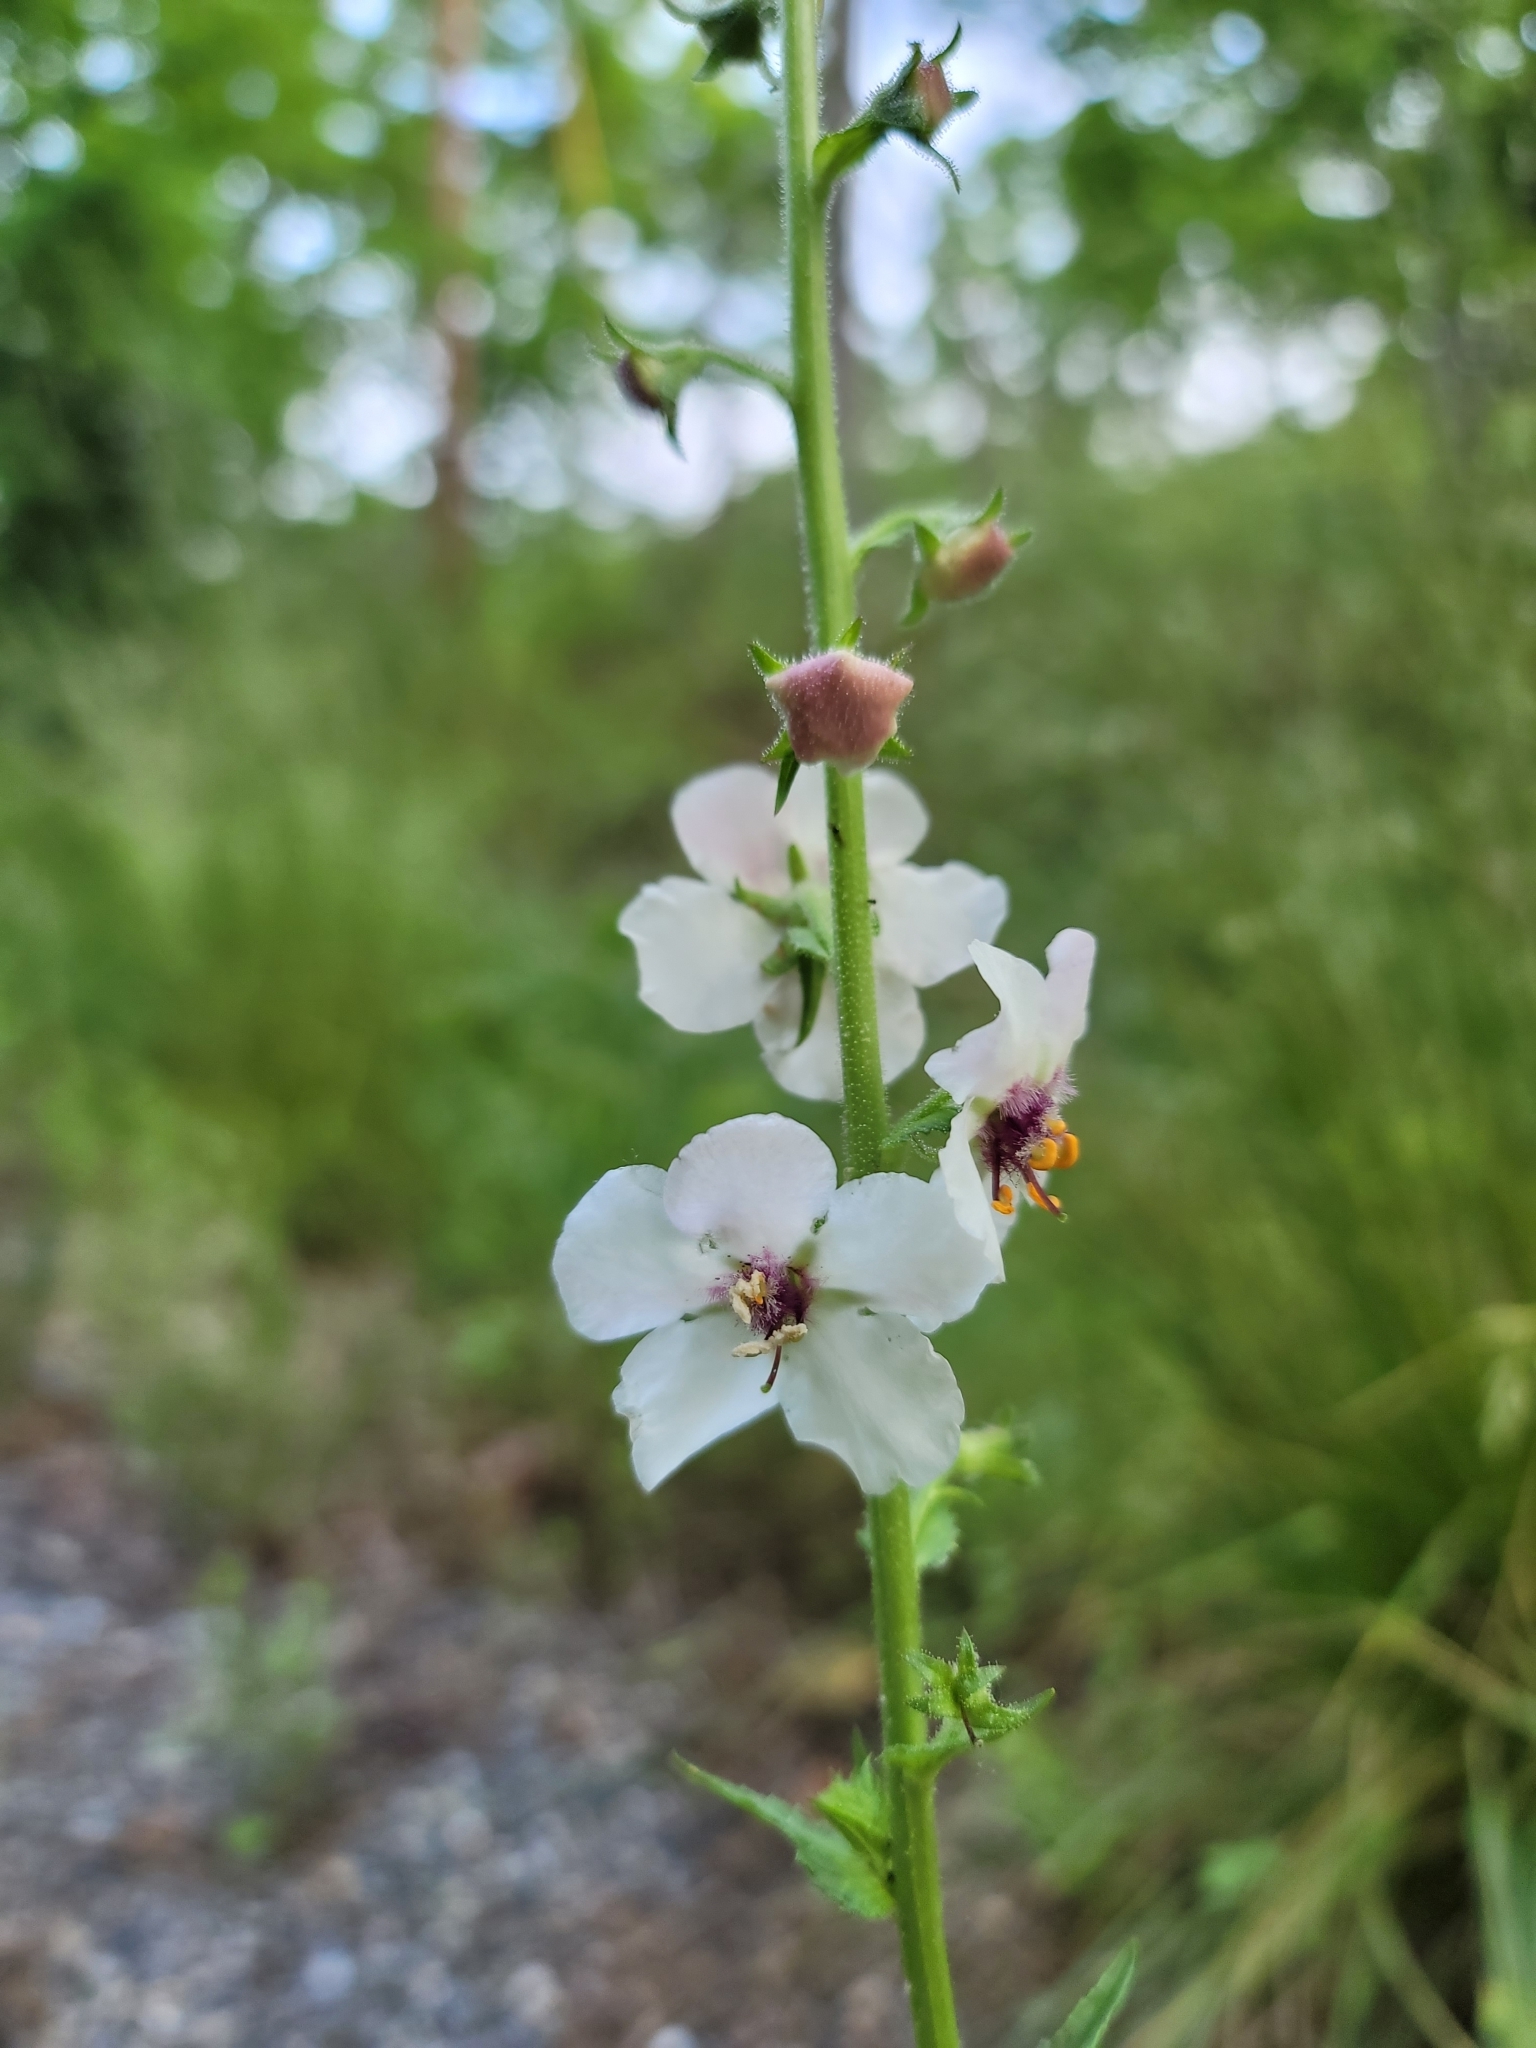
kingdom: Plantae
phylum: Tracheophyta
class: Magnoliopsida
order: Lamiales
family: Scrophulariaceae
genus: Verbascum
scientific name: Verbascum blattaria
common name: Moth mullein
